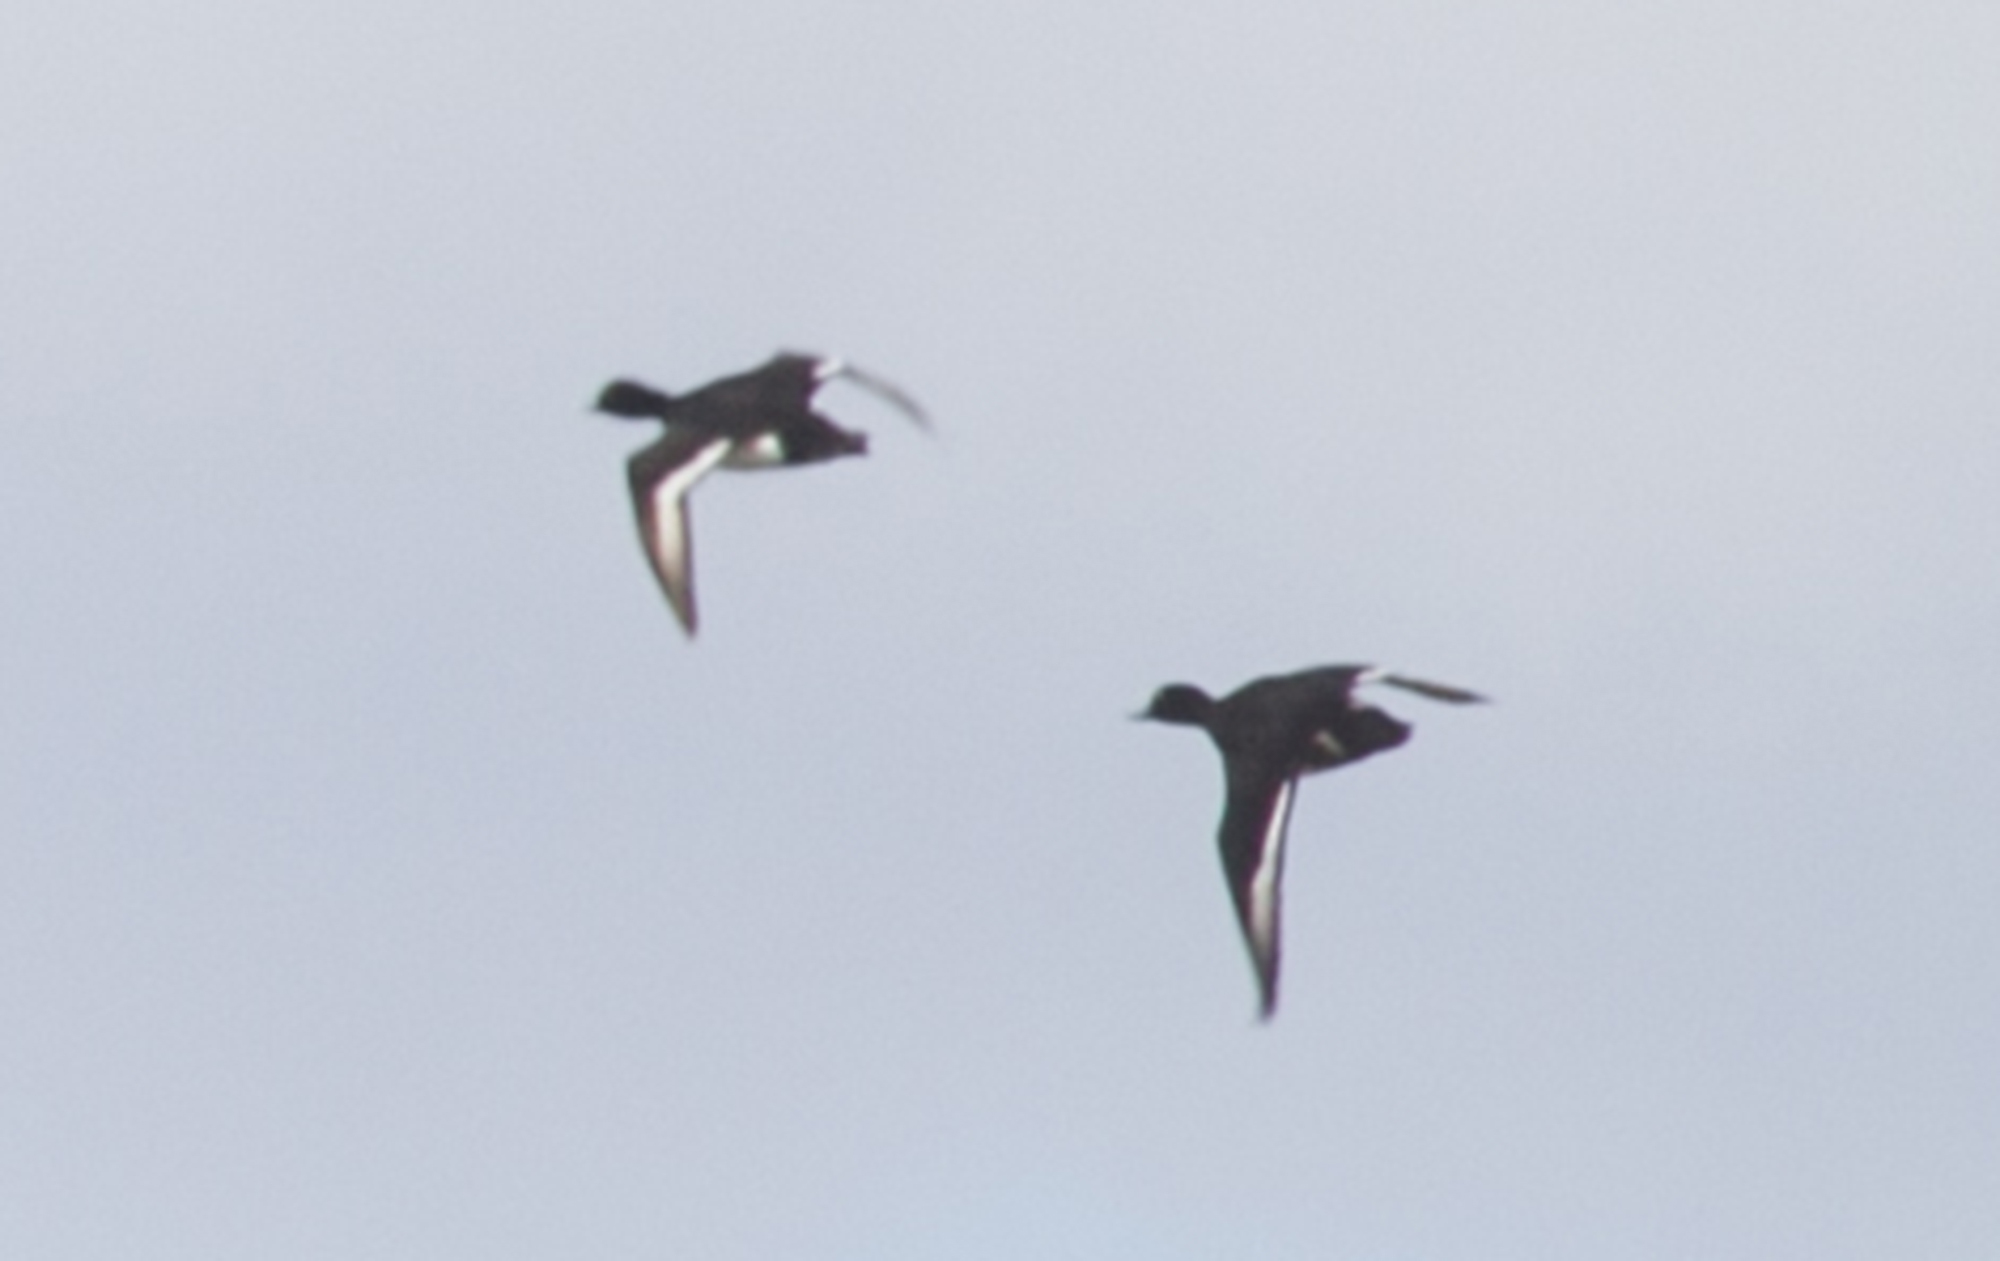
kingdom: Animalia
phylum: Chordata
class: Aves
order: Anseriformes
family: Anatidae
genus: Aythya
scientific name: Aythya fuligula
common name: Tufted duck
